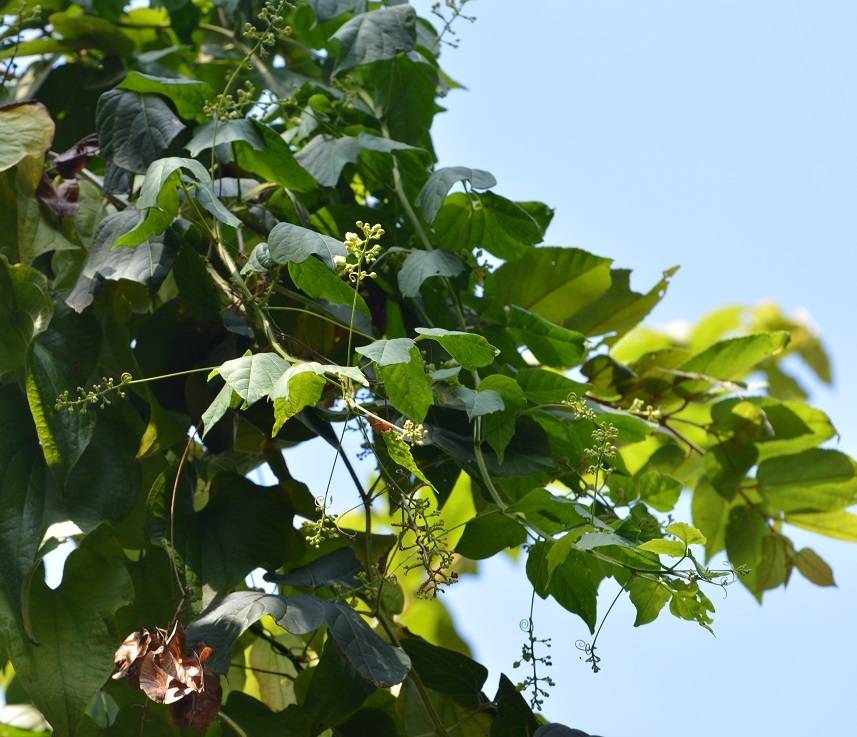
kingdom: Plantae
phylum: Tracheophyta
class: Magnoliopsida
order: Sapindales
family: Sapindaceae
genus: Serjania
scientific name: Serjania grosii
